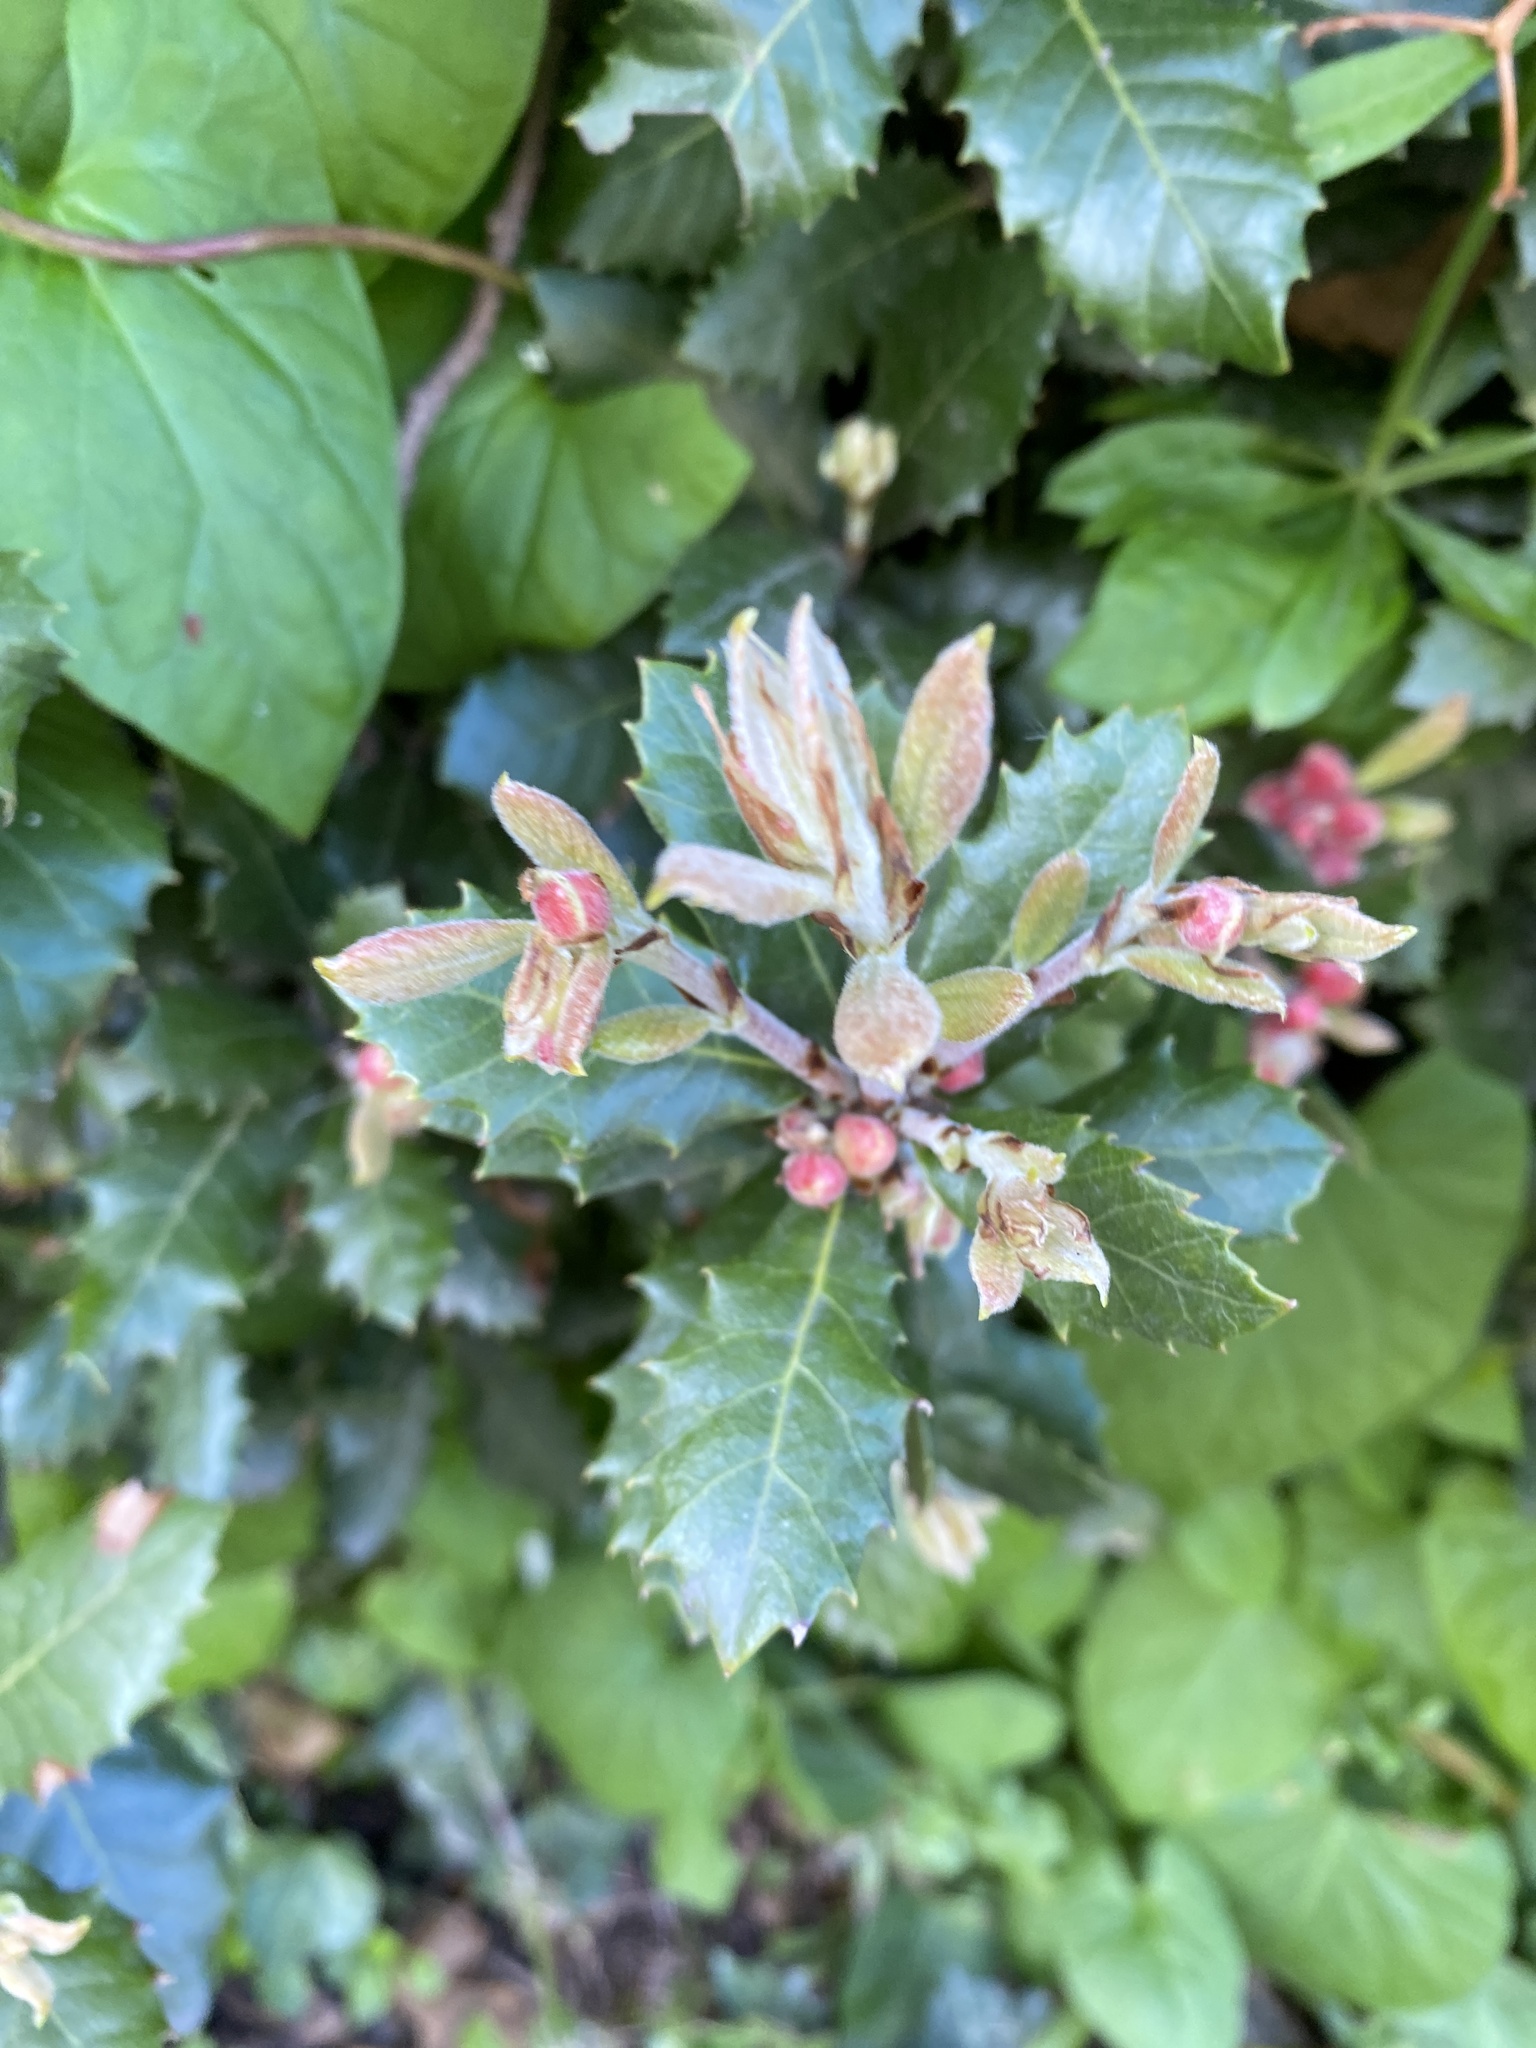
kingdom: Animalia
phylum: Arthropoda
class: Insecta
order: Hymenoptera
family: Cynipidae
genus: Plagiotrochus
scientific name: Plagiotrochus quercusilicis
